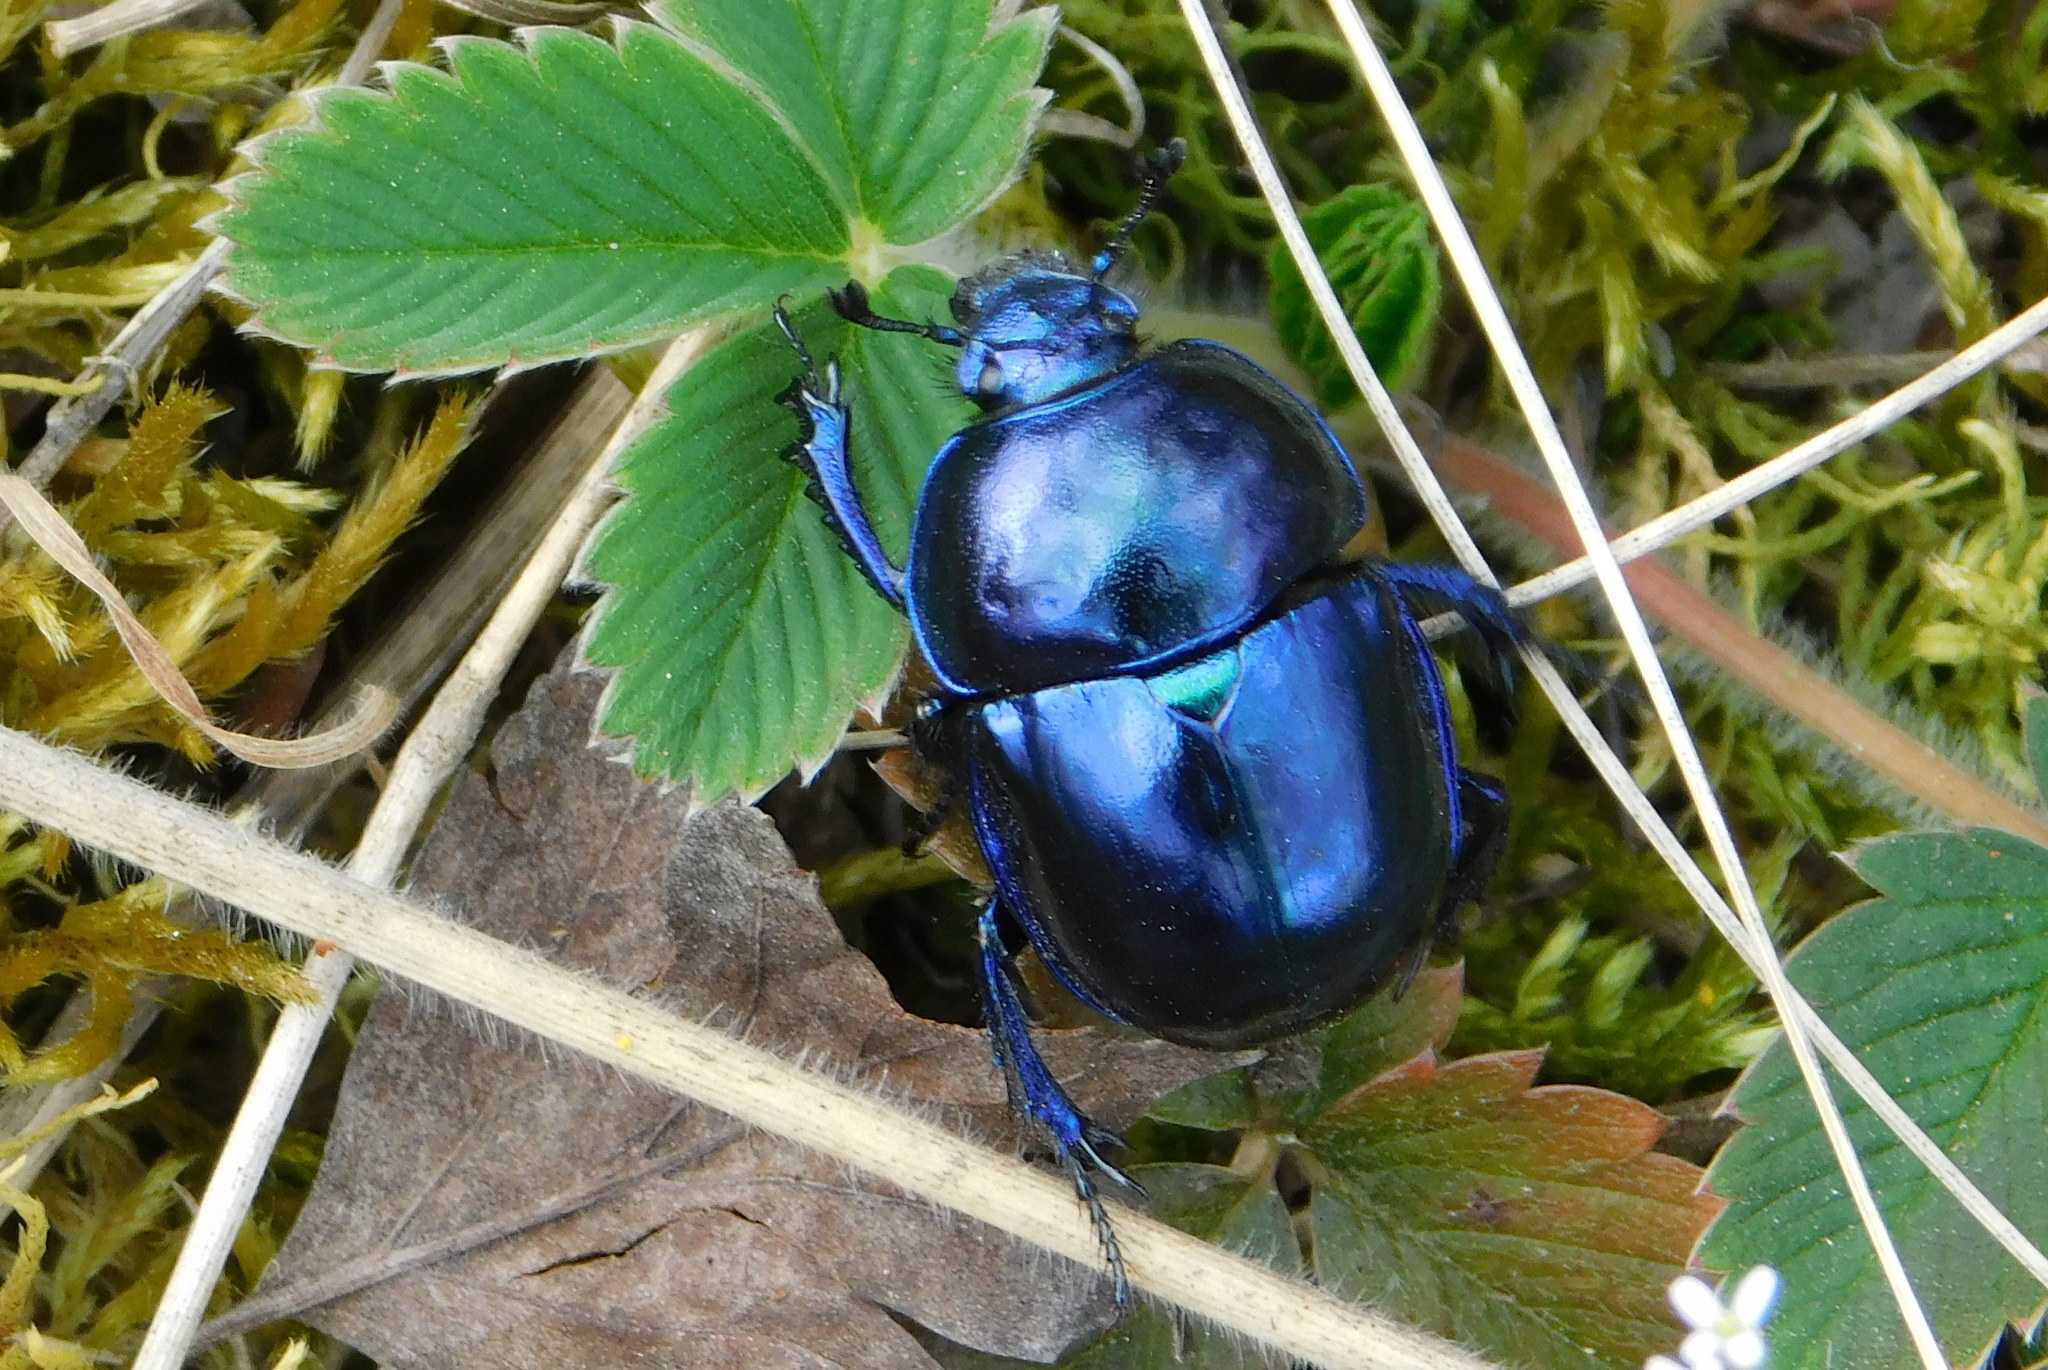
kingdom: Animalia
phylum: Arthropoda
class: Insecta
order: Coleoptera
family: Geotrupidae
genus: Trypocopris
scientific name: Trypocopris vernalis
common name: Spring dumbledor
